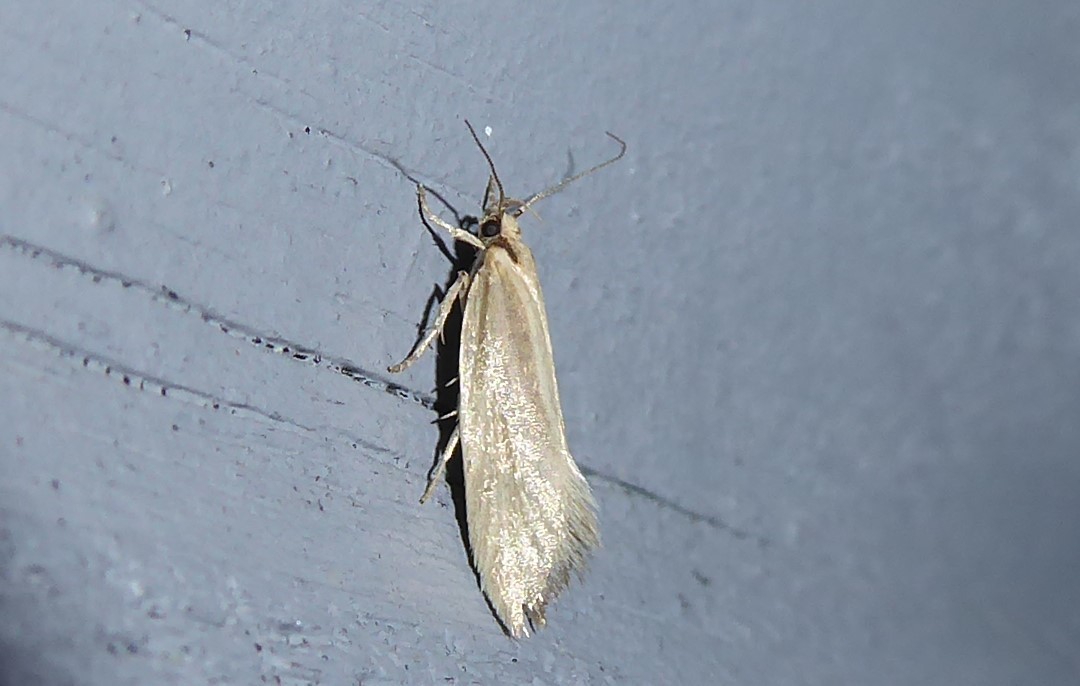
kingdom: Animalia
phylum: Arthropoda
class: Insecta
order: Lepidoptera
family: Oecophoridae
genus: Tingena
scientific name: Tingena chloradelpha
